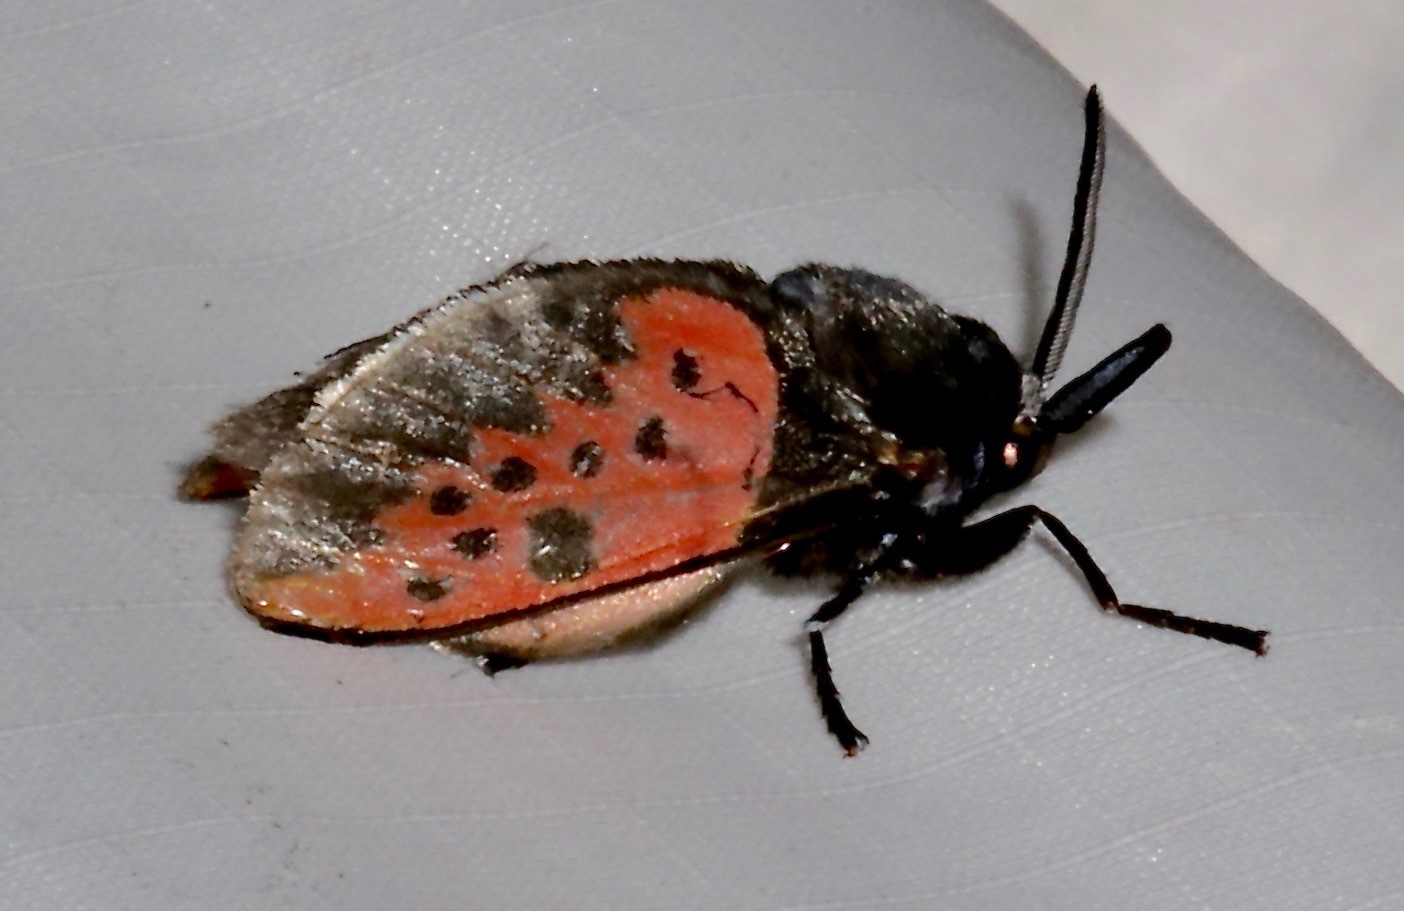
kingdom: Animalia
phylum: Arthropoda
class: Insecta
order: Lepidoptera
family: Megalopygidae
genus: Langucys
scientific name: Langucys onorei
